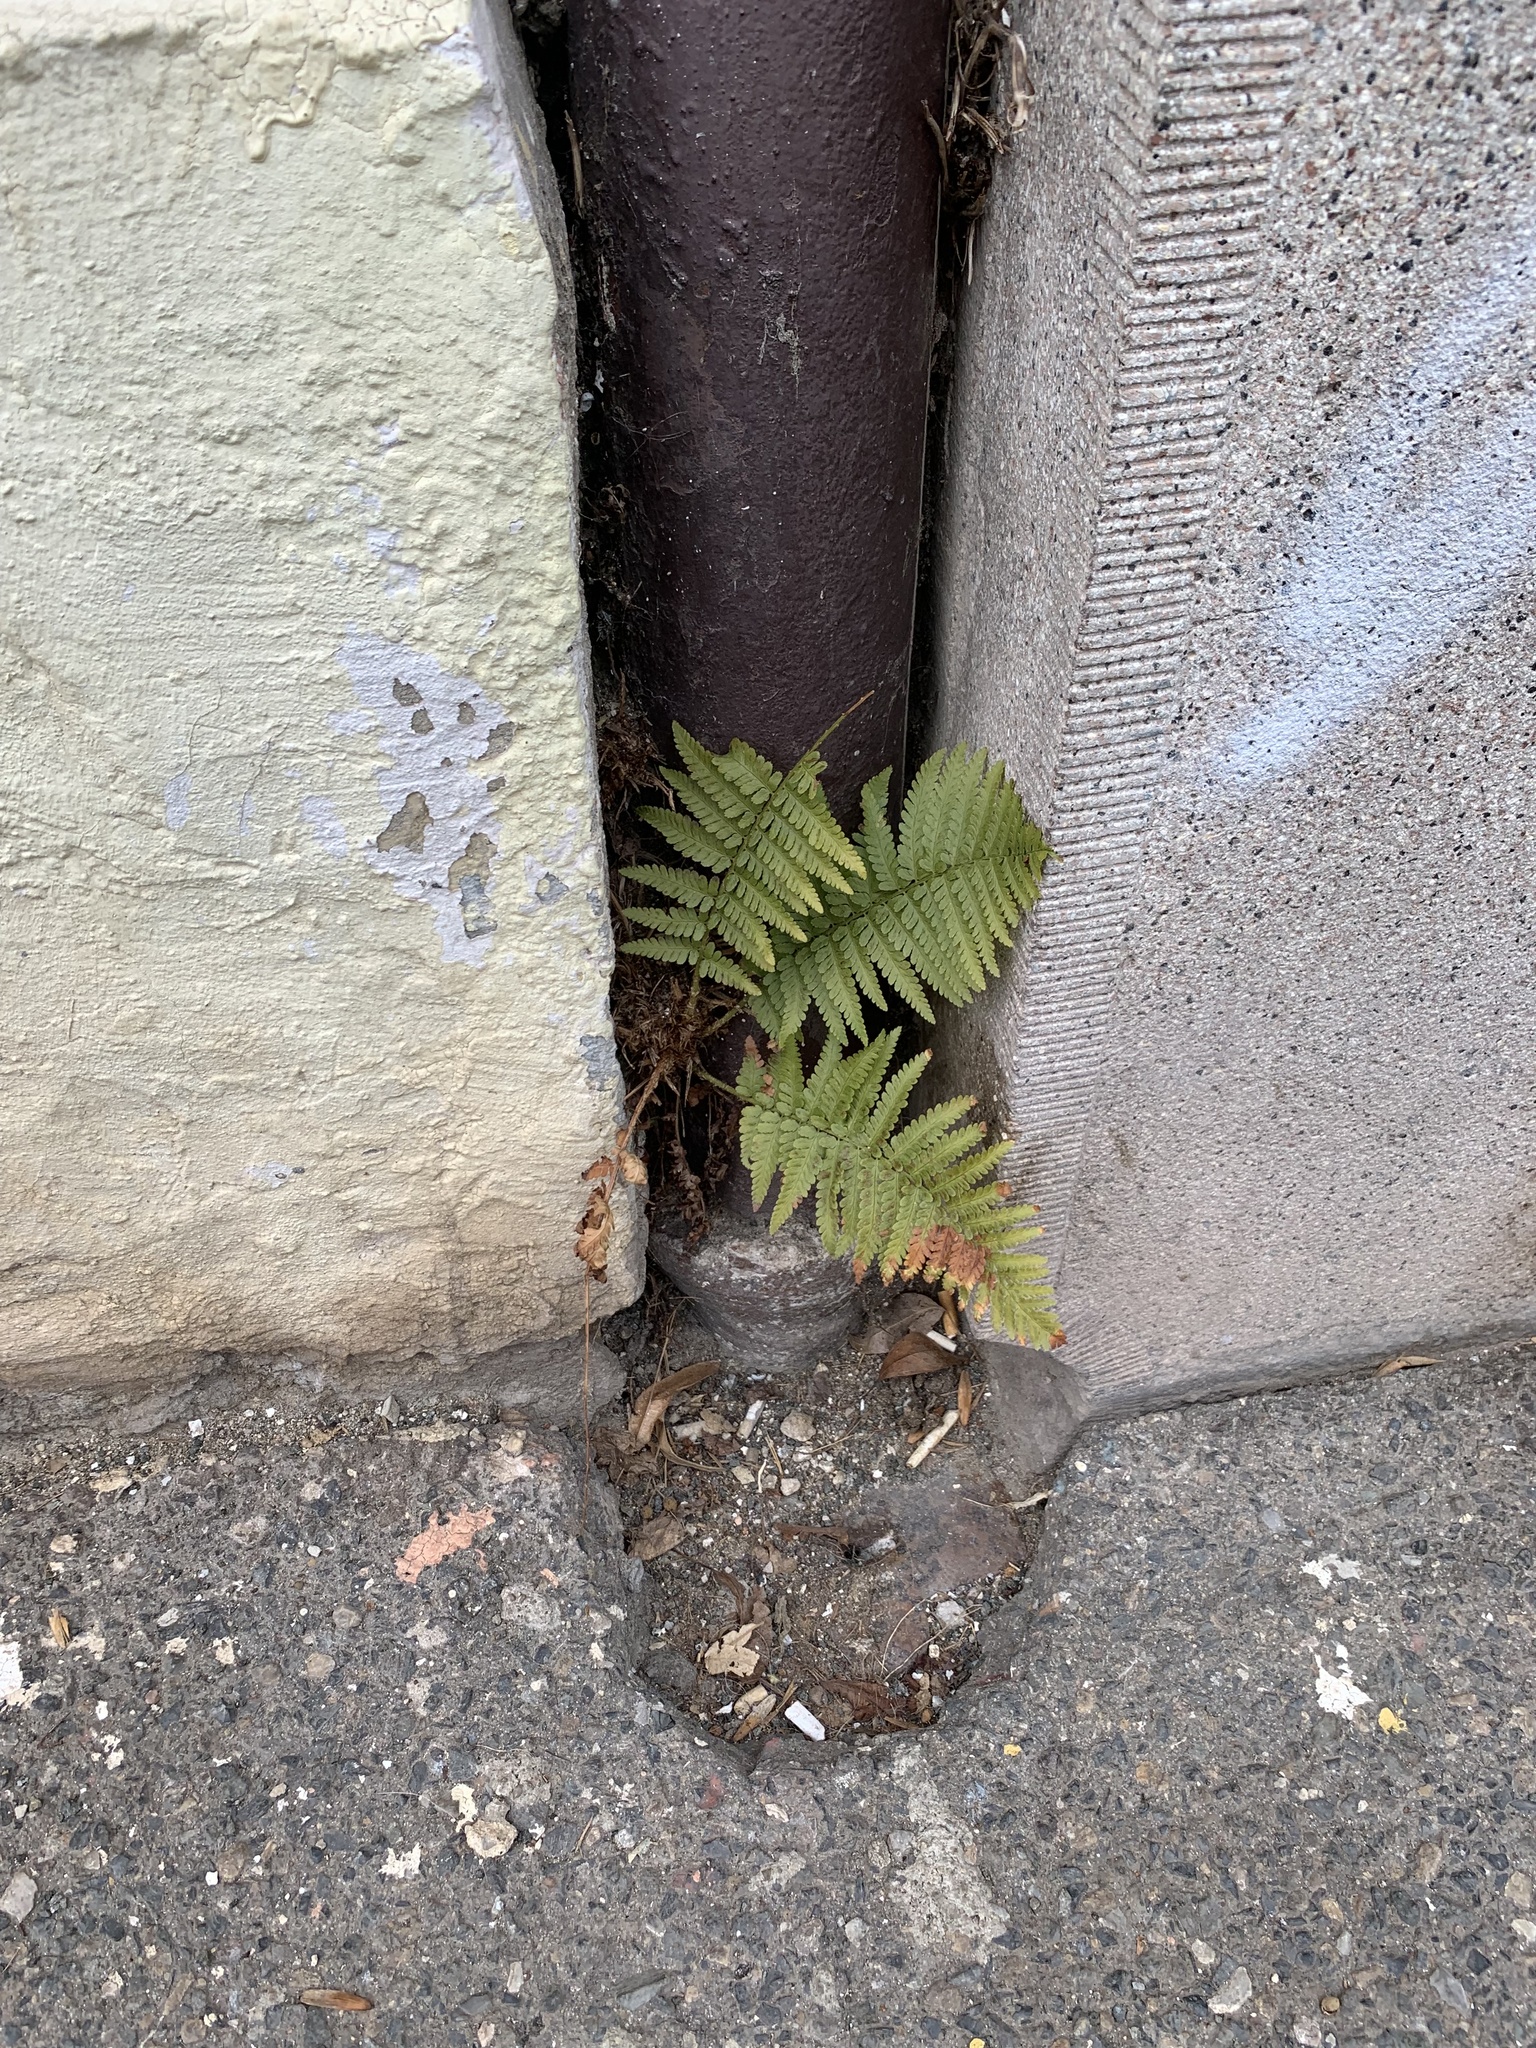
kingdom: Plantae
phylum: Tracheophyta
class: Polypodiopsida
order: Polypodiales
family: Dryopteridaceae
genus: Dryopteris
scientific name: Dryopteris filix-mas
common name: Male fern
